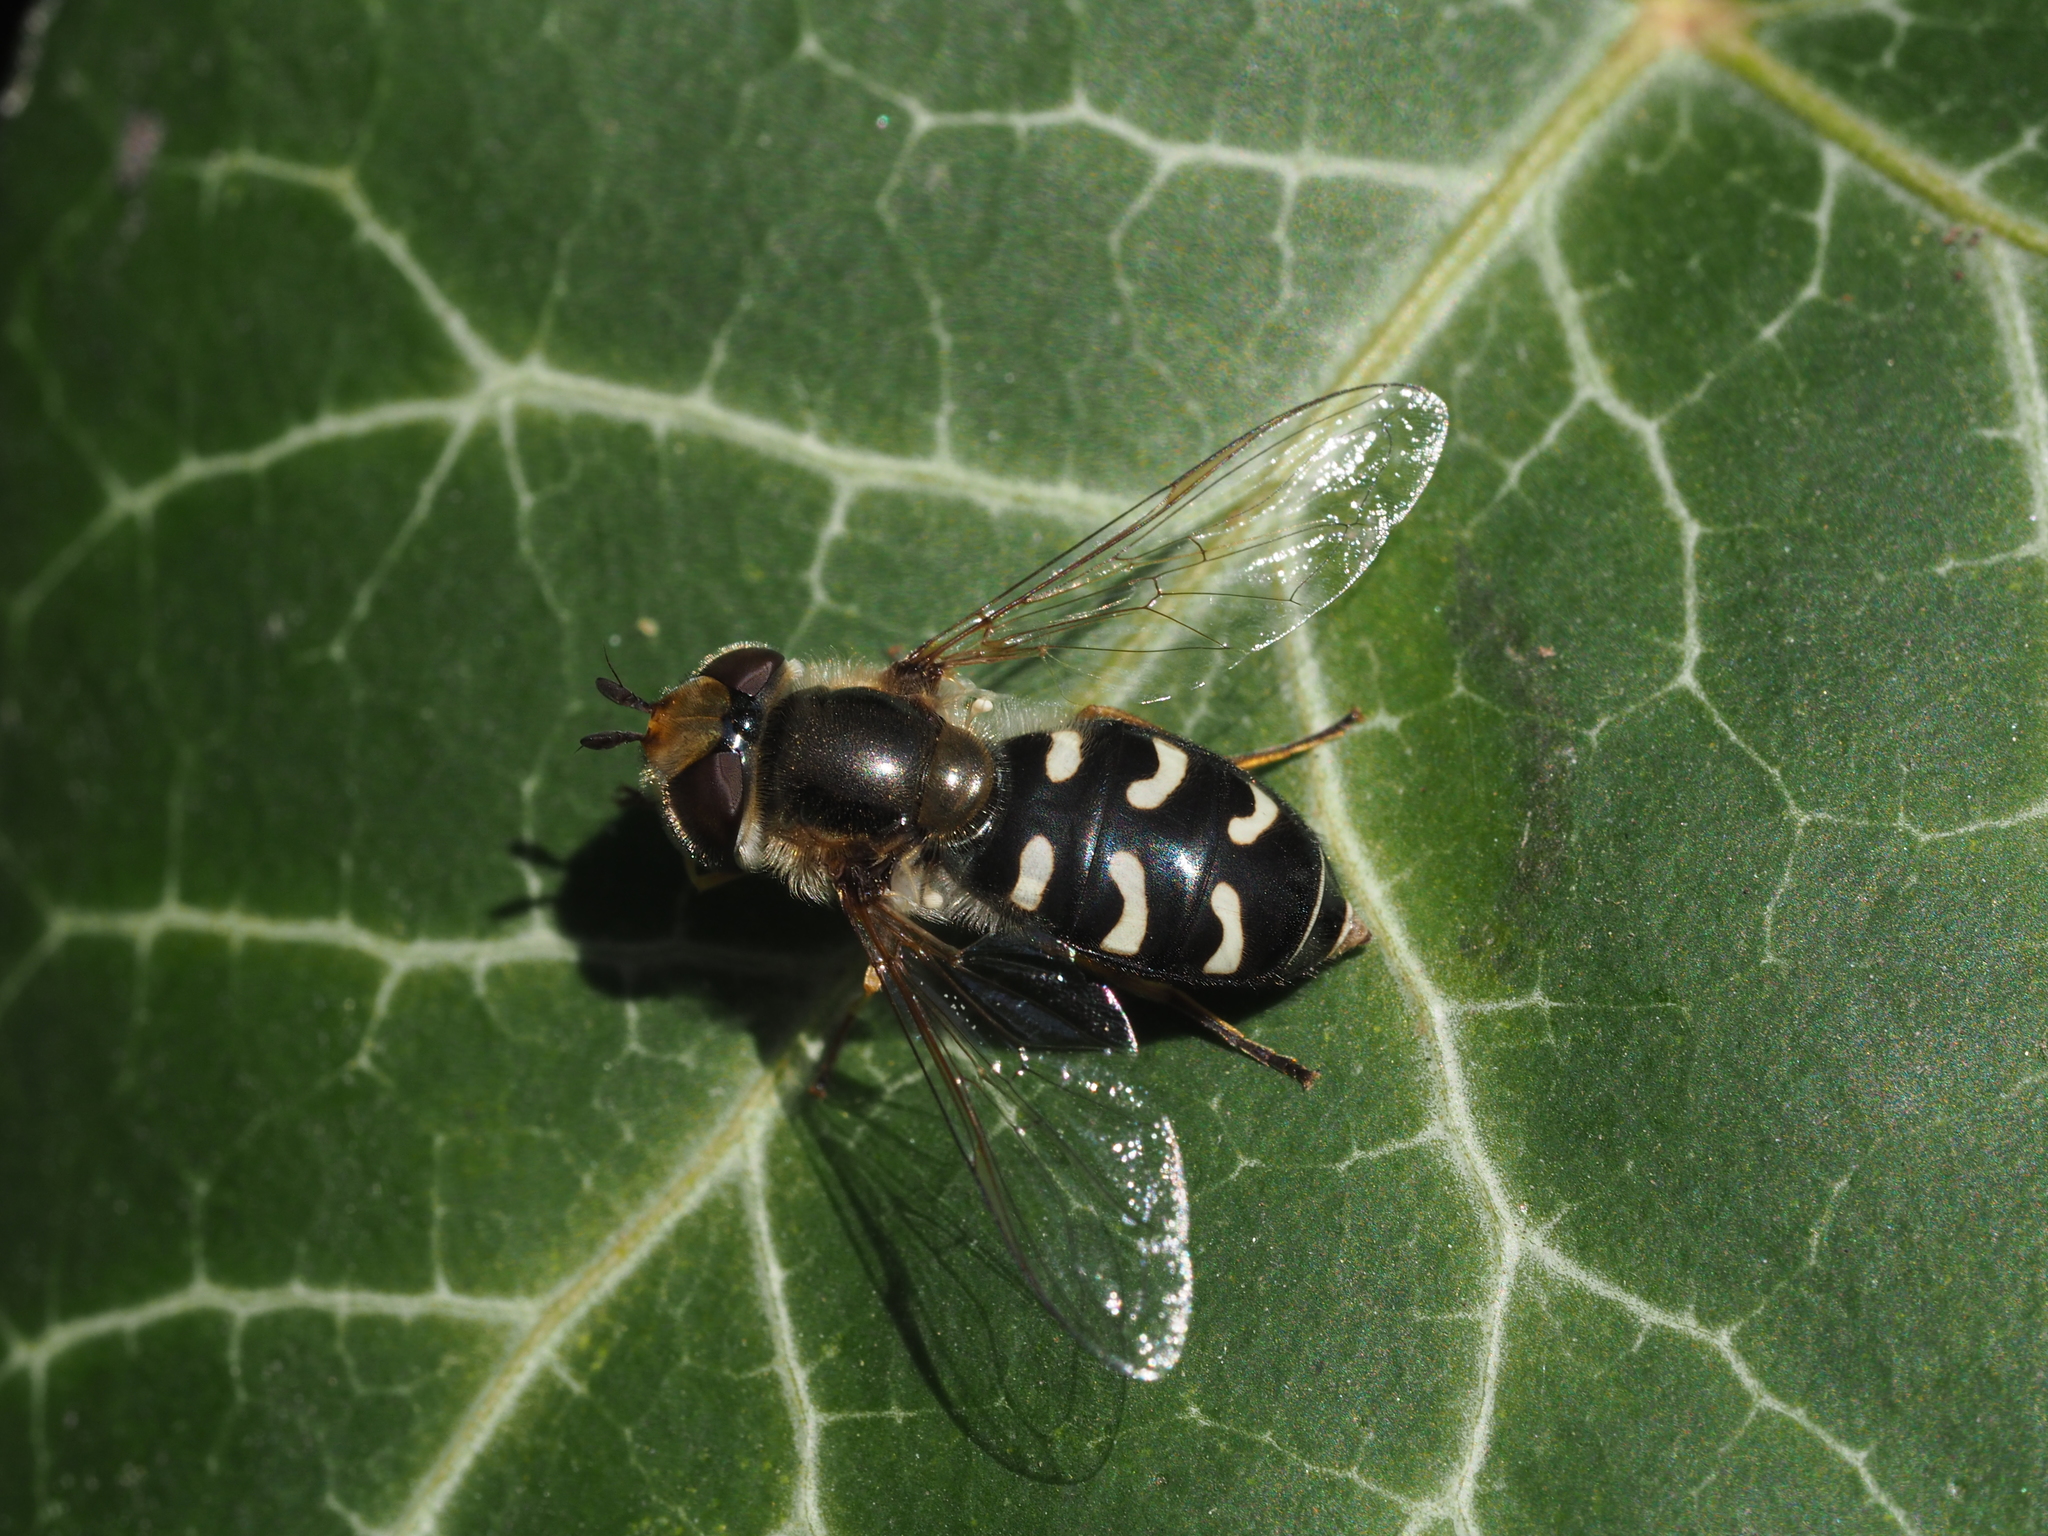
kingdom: Animalia
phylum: Arthropoda
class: Insecta
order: Diptera
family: Syrphidae
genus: Scaeva
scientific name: Scaeva pyrastri
